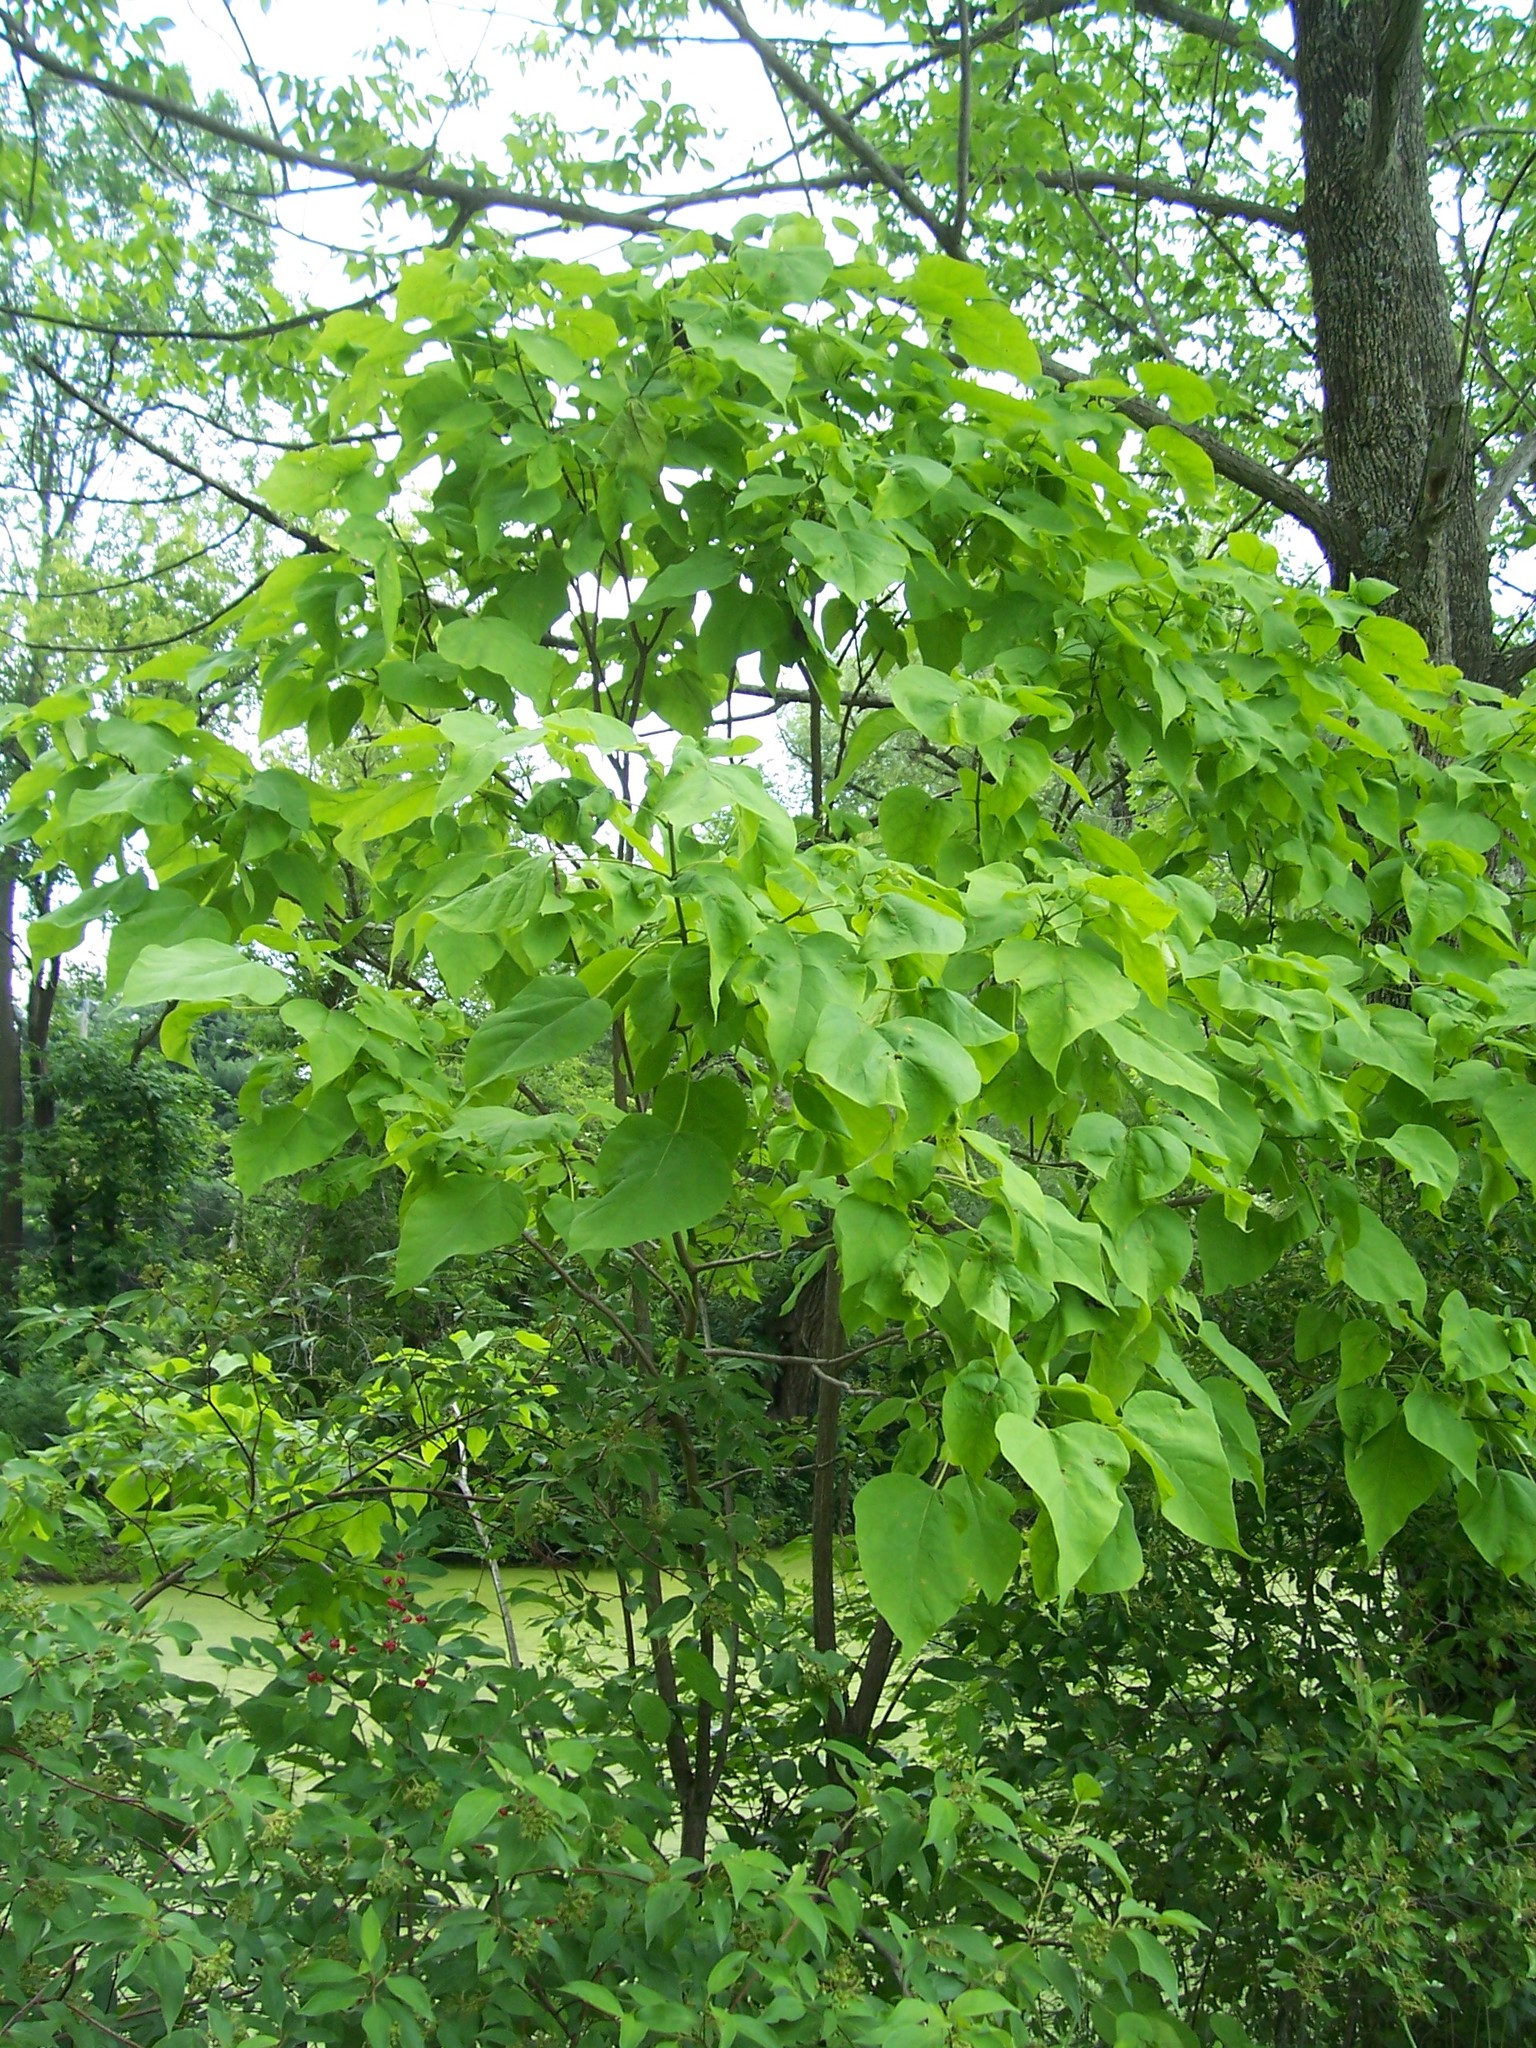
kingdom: Plantae
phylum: Tracheophyta
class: Magnoliopsida
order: Lamiales
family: Bignoniaceae
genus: Catalpa
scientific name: Catalpa bignonioides
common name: Southern catalpa
